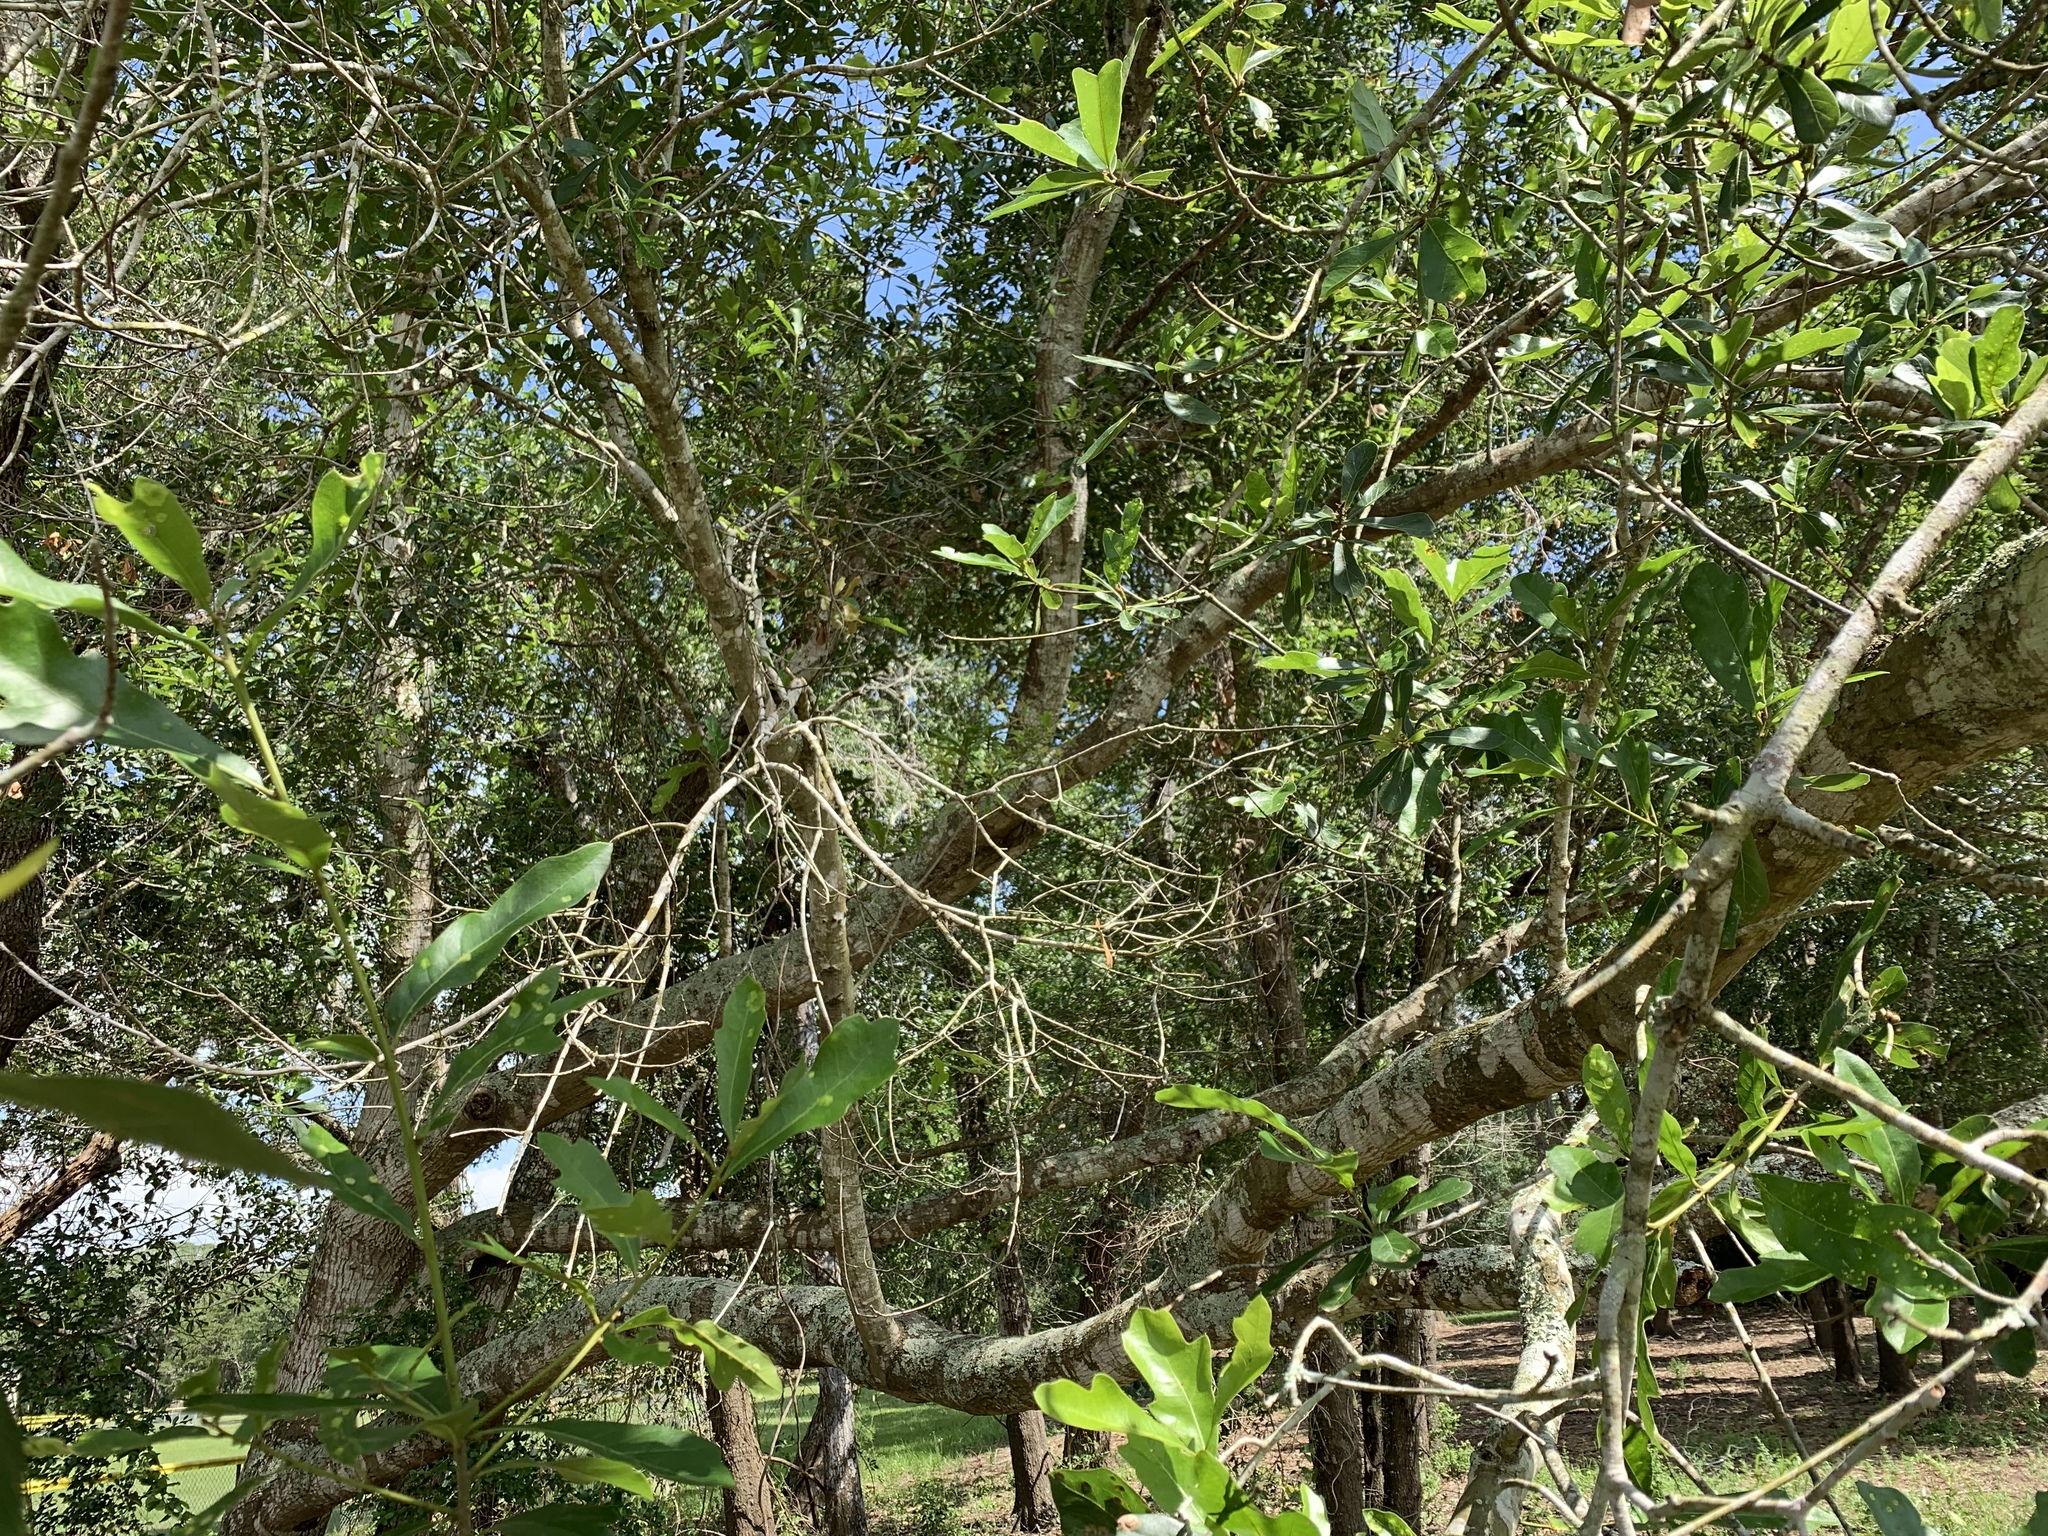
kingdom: Plantae
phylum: Tracheophyta
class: Magnoliopsida
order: Fagales
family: Fagaceae
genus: Quercus
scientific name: Quercus nigra
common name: Water oak
